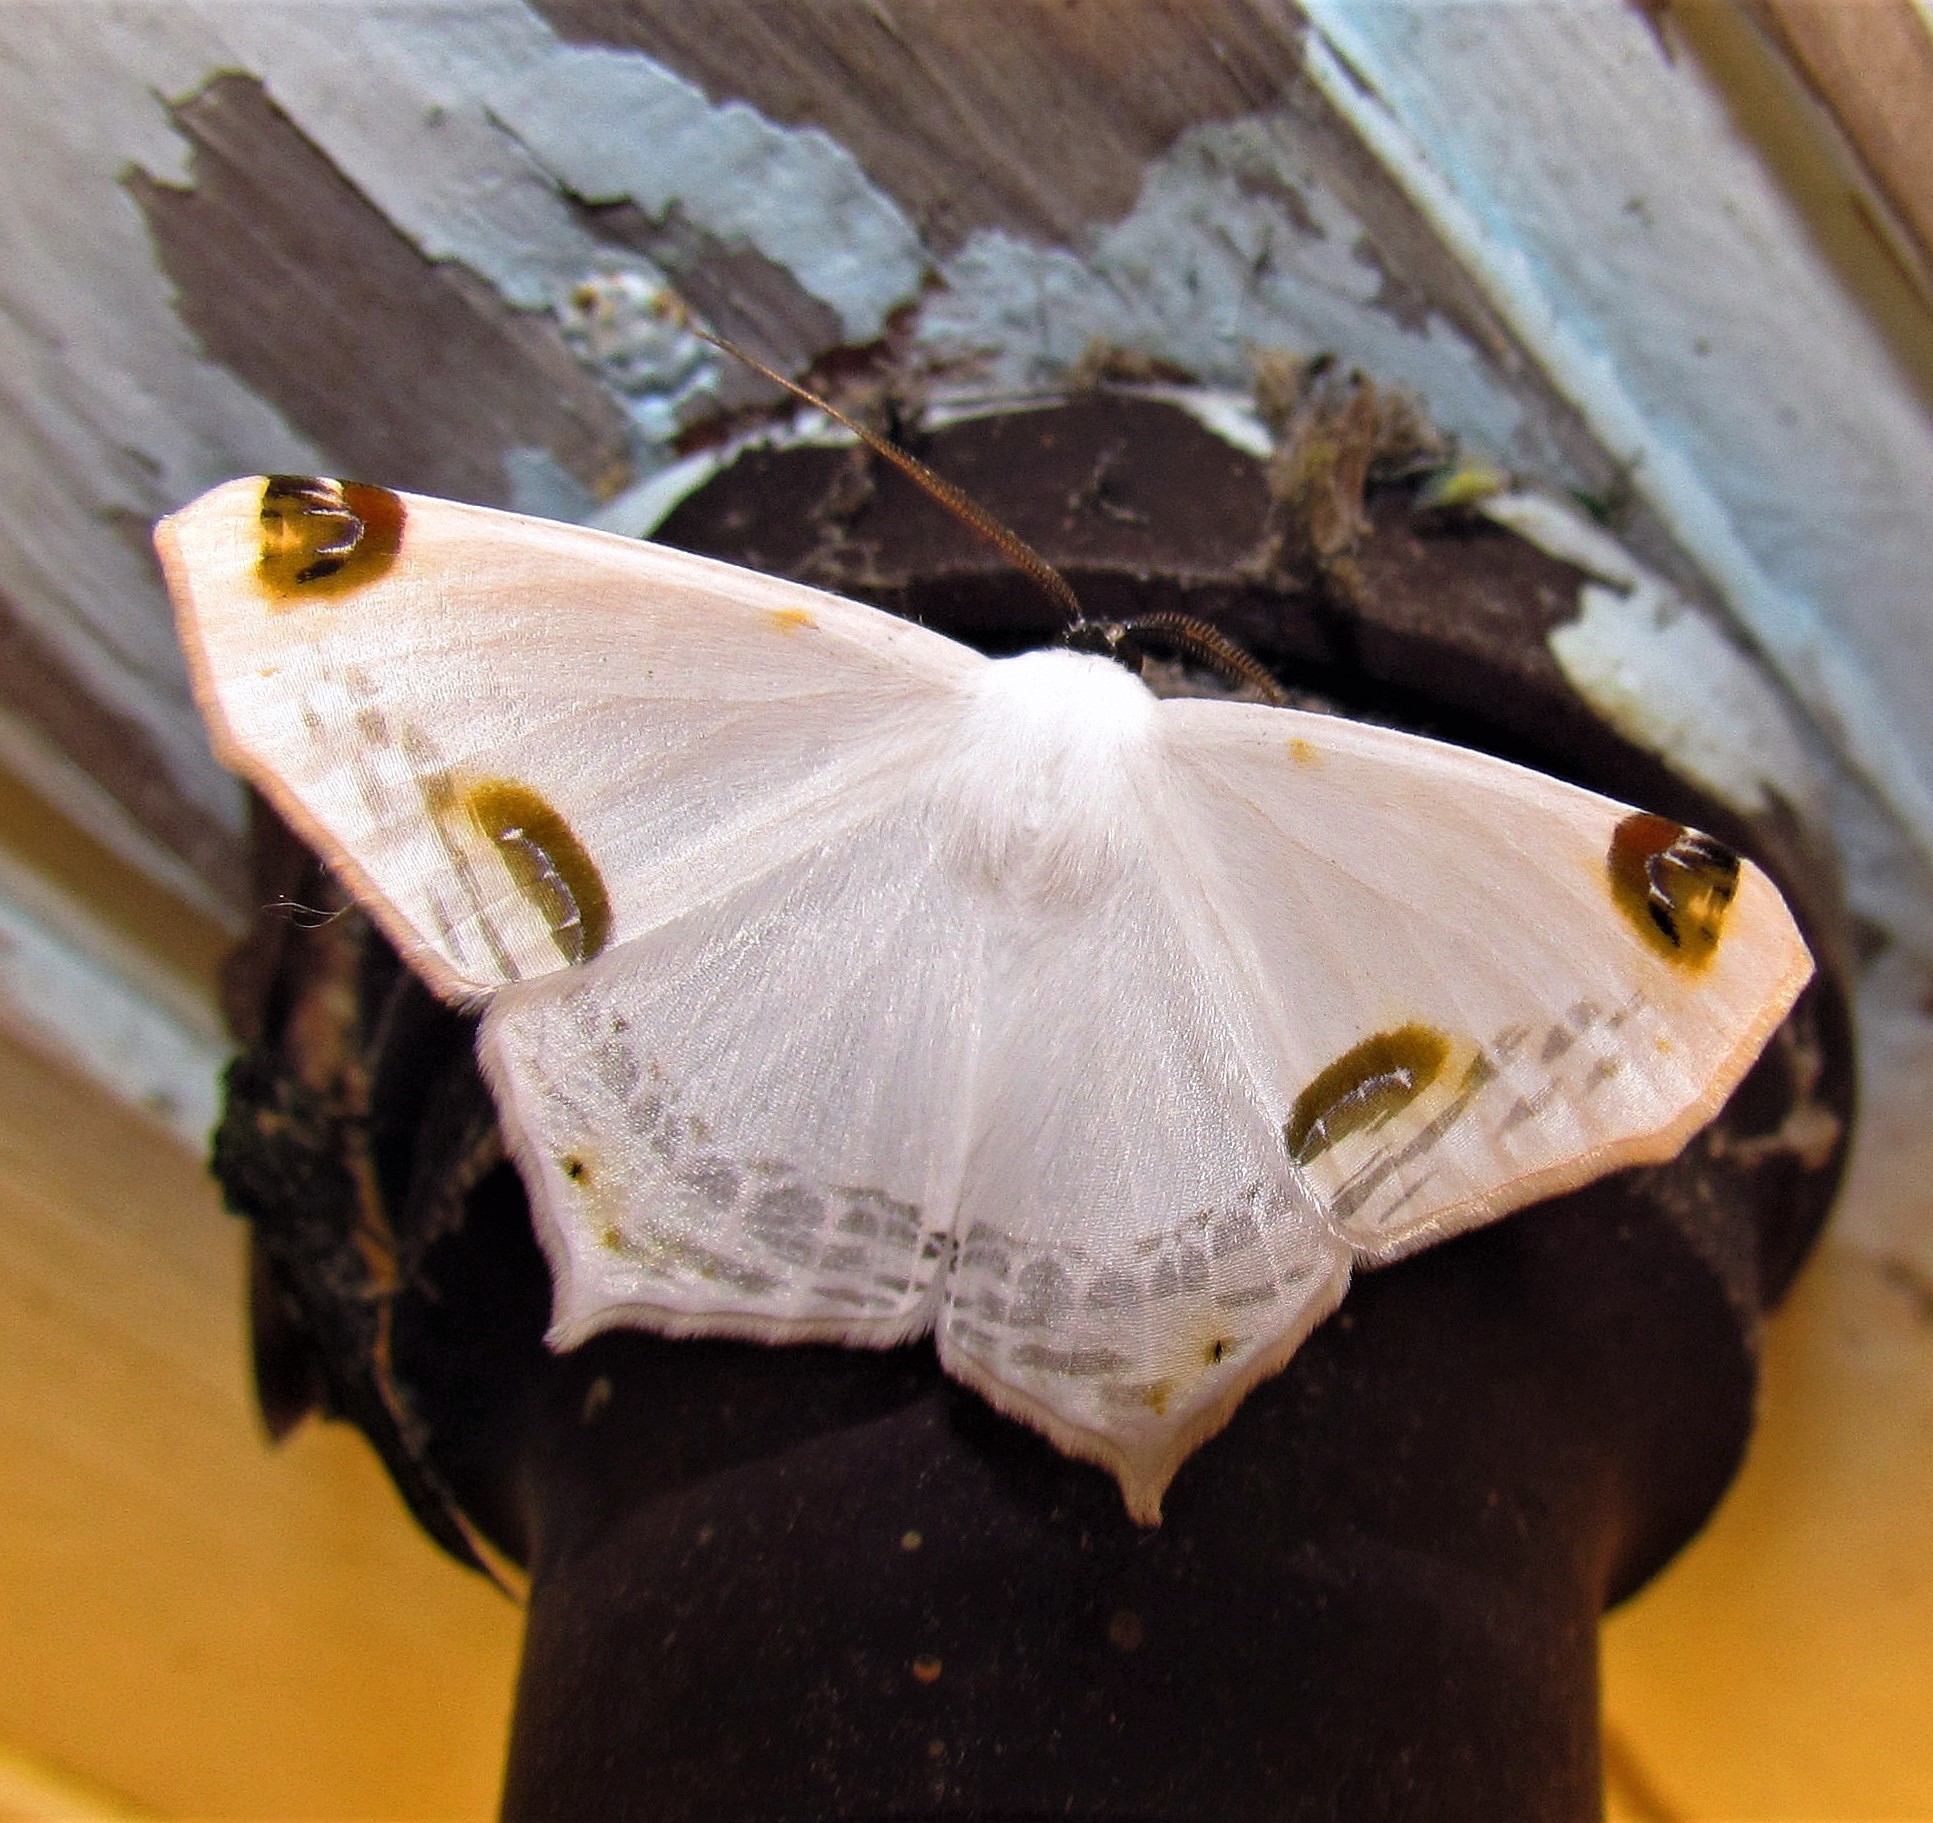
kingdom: Animalia
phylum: Arthropoda
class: Insecta
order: Lepidoptera
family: Geometridae
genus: Sericoptera
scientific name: Sericoptera mahometaria
